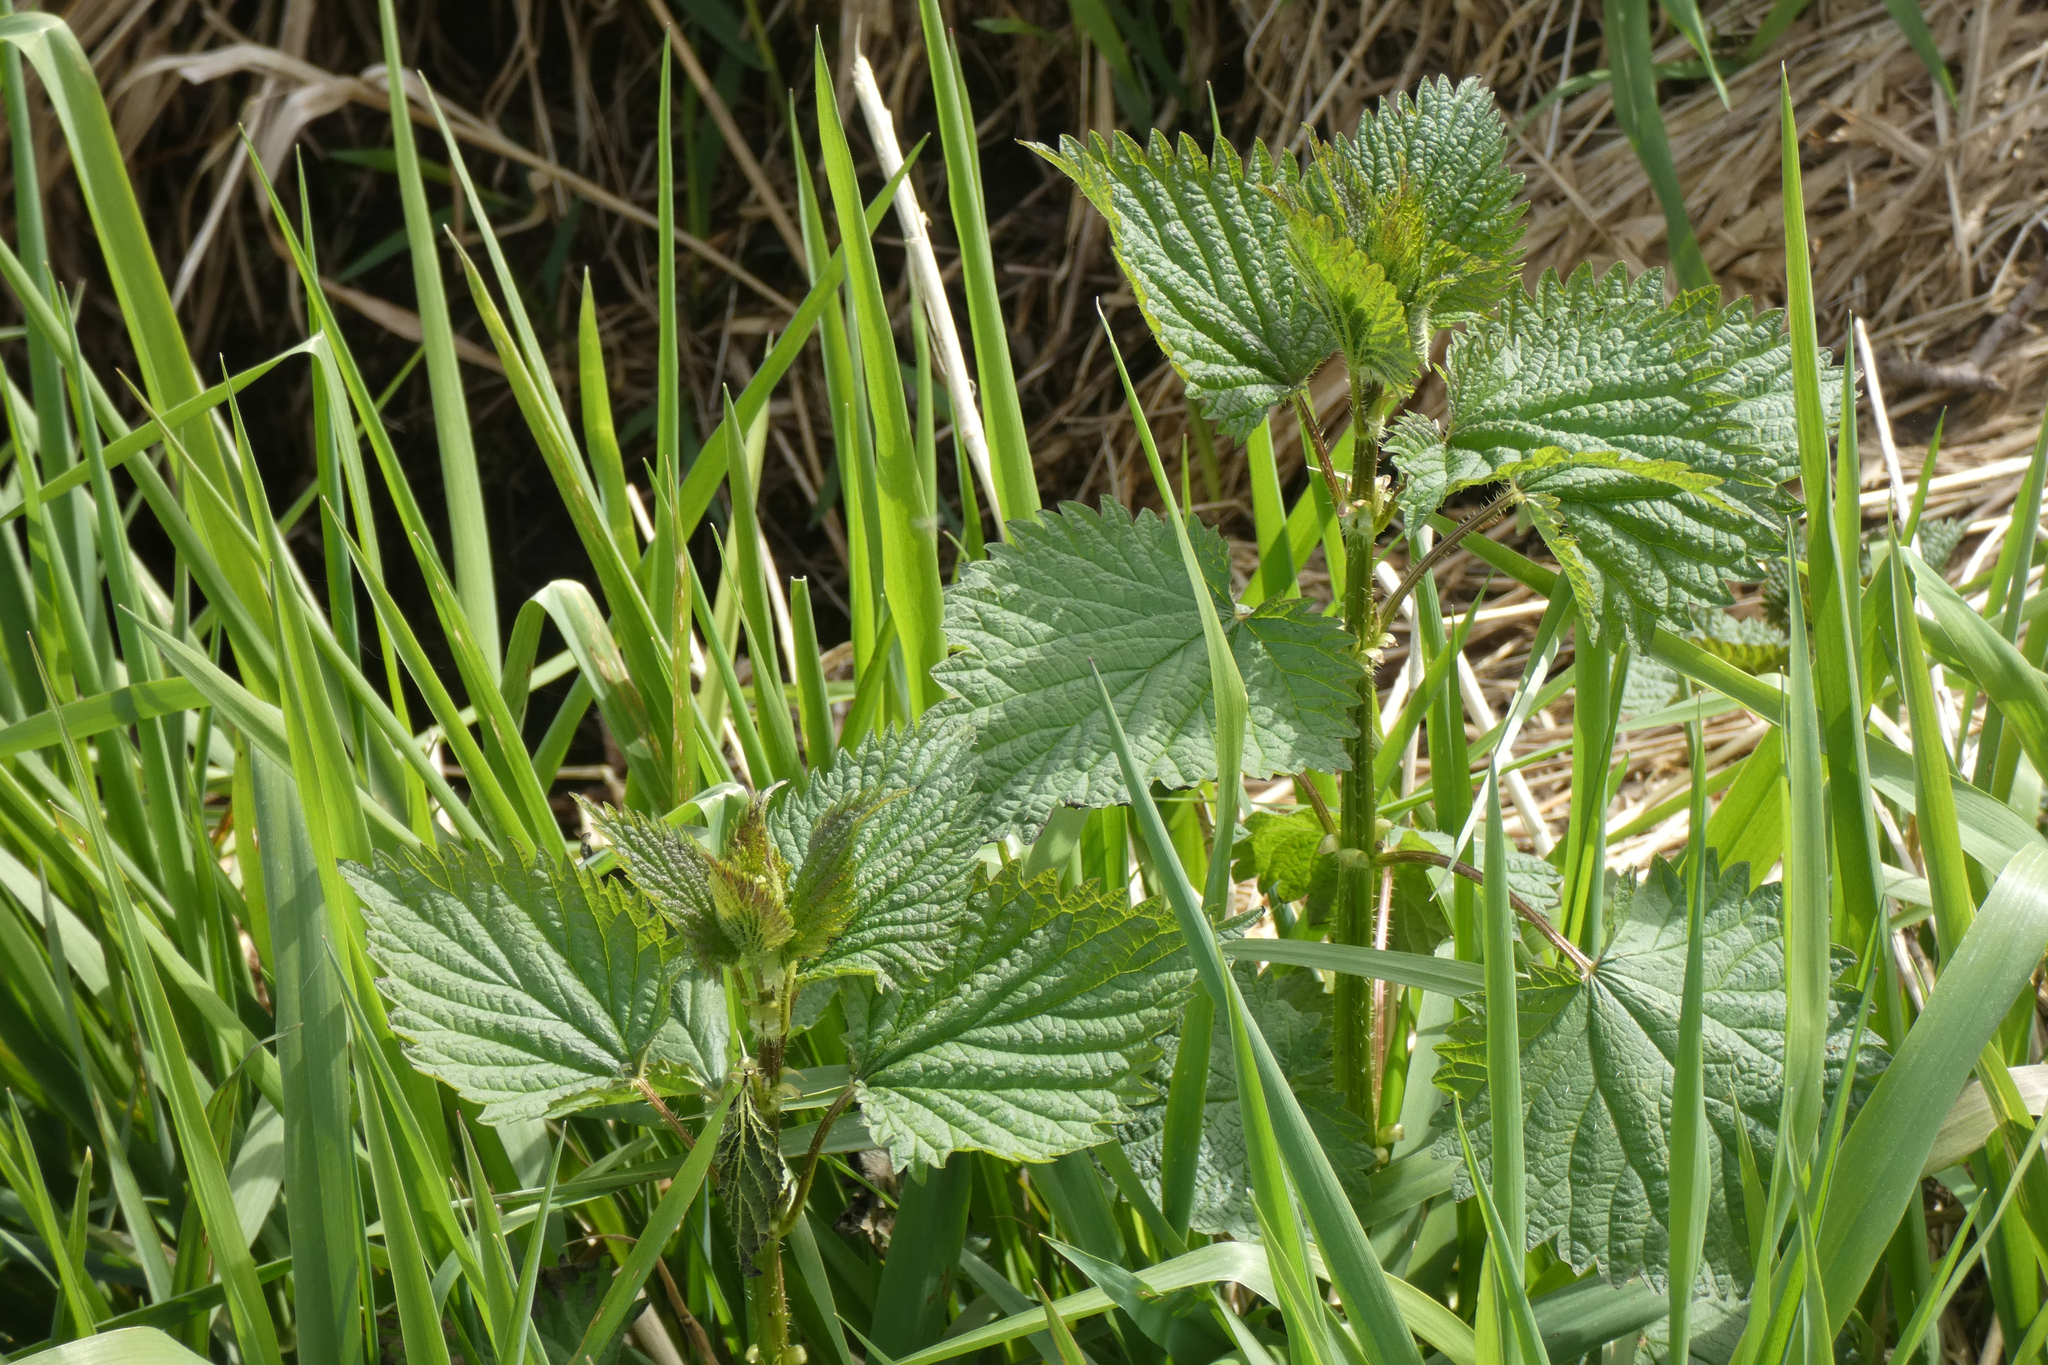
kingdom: Plantae
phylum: Tracheophyta
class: Magnoliopsida
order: Rosales
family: Urticaceae
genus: Urtica
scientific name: Urtica gracilis
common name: Slender stinging nettle
